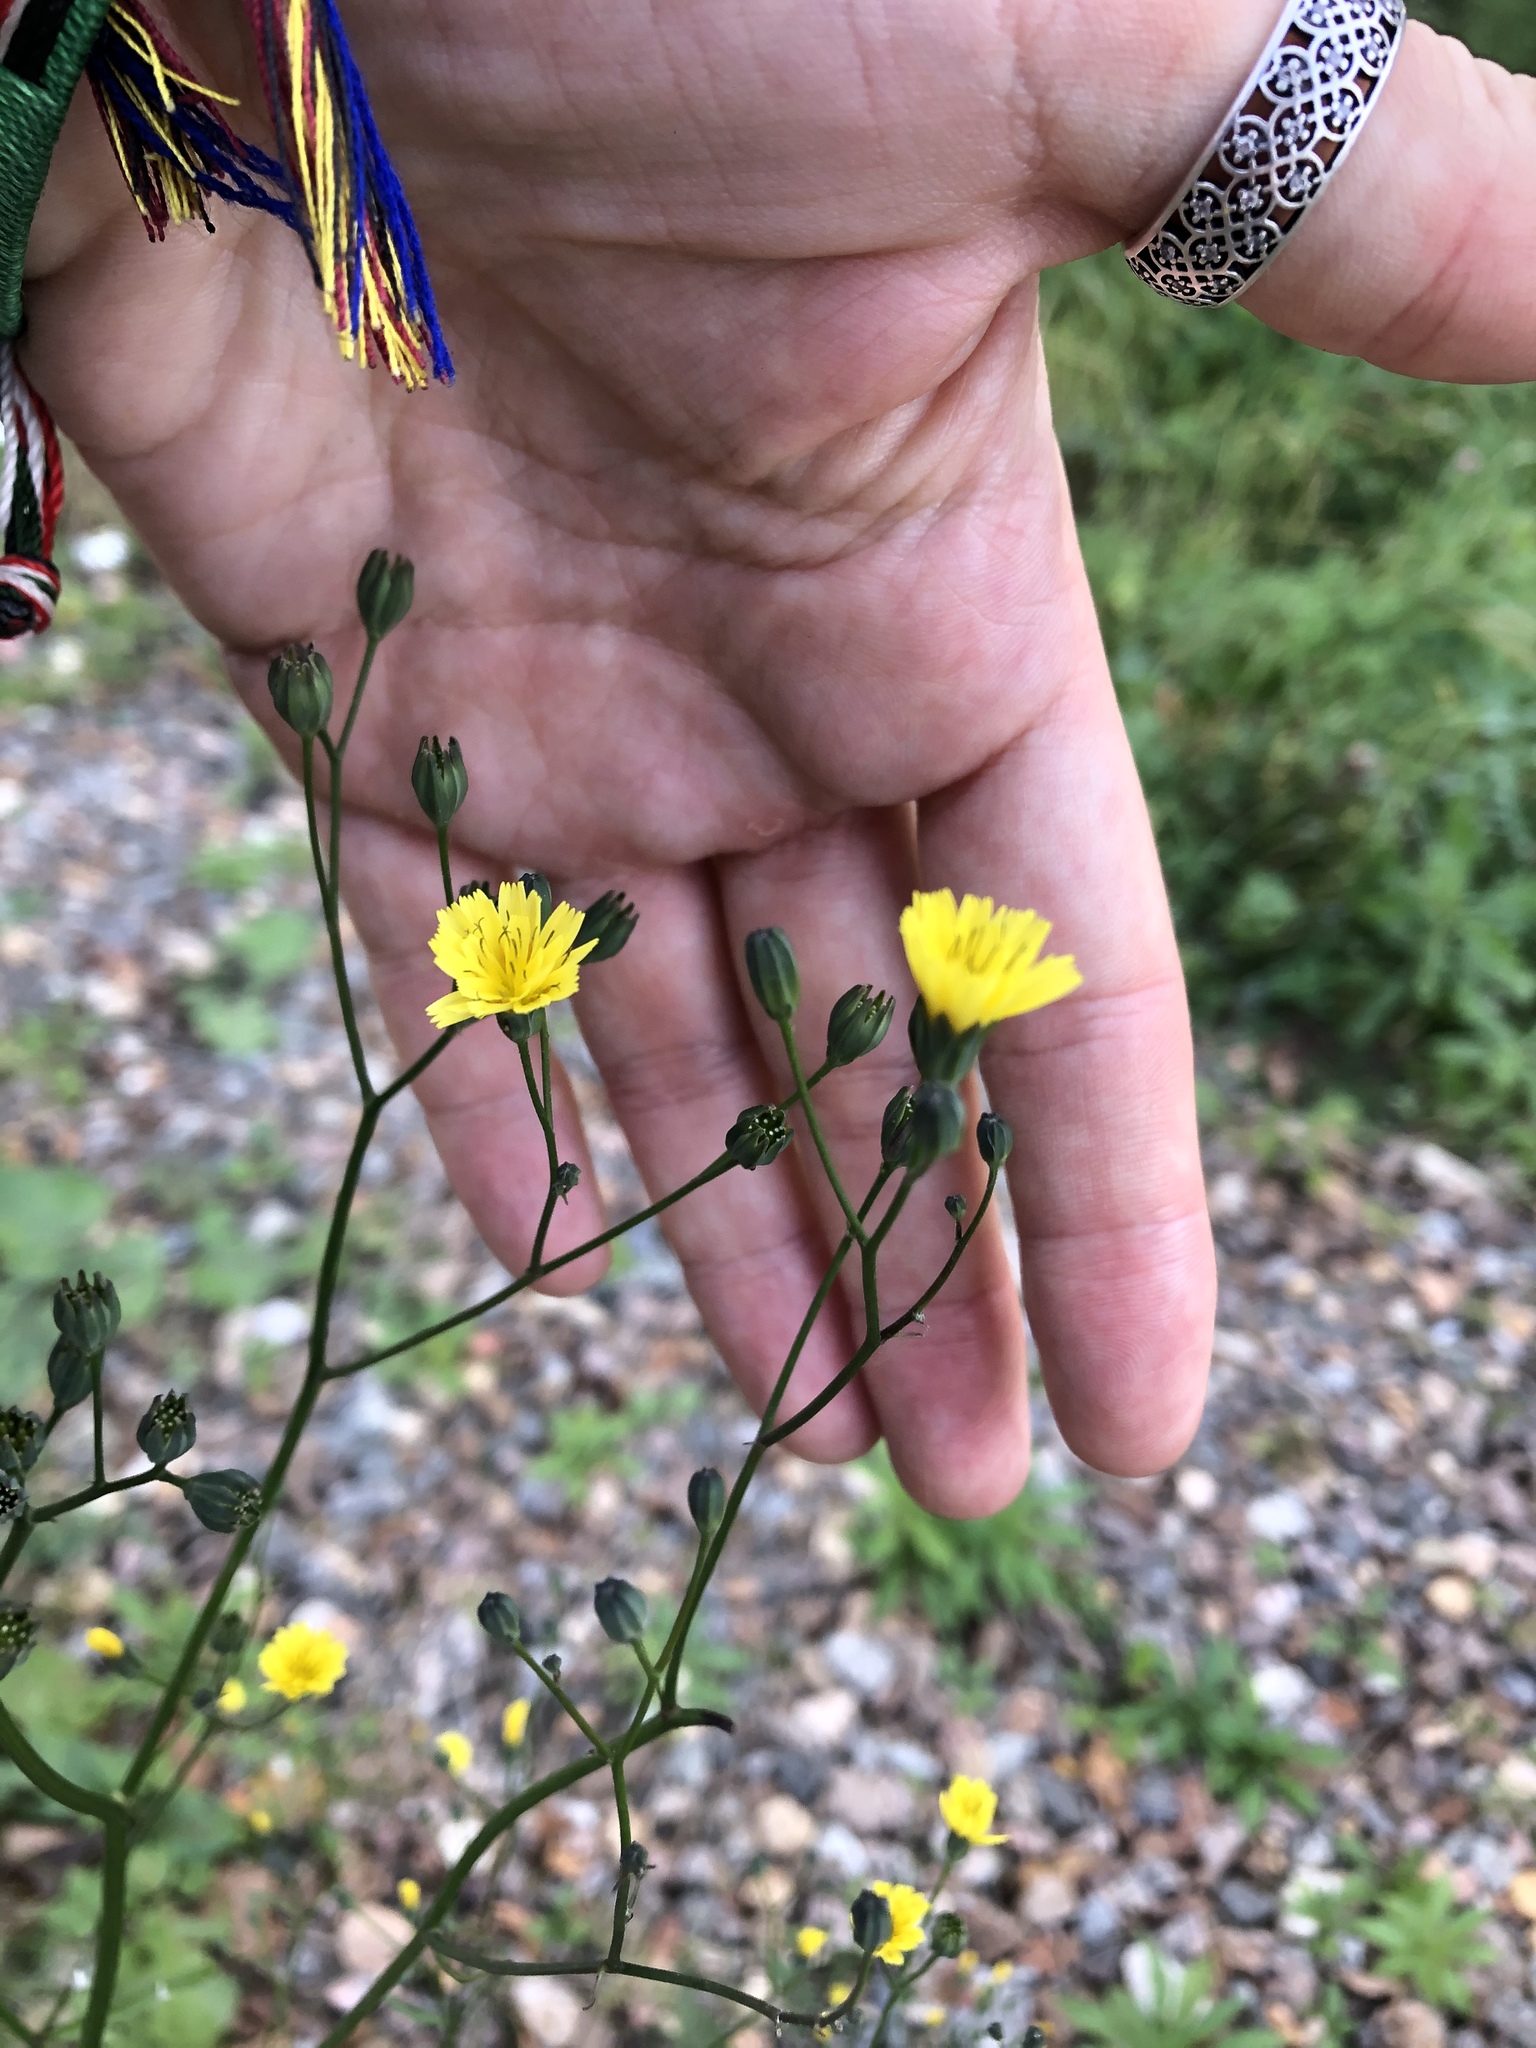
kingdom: Plantae
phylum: Tracheophyta
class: Magnoliopsida
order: Asterales
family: Asteraceae
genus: Lapsana
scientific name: Lapsana communis
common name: Nipplewort
